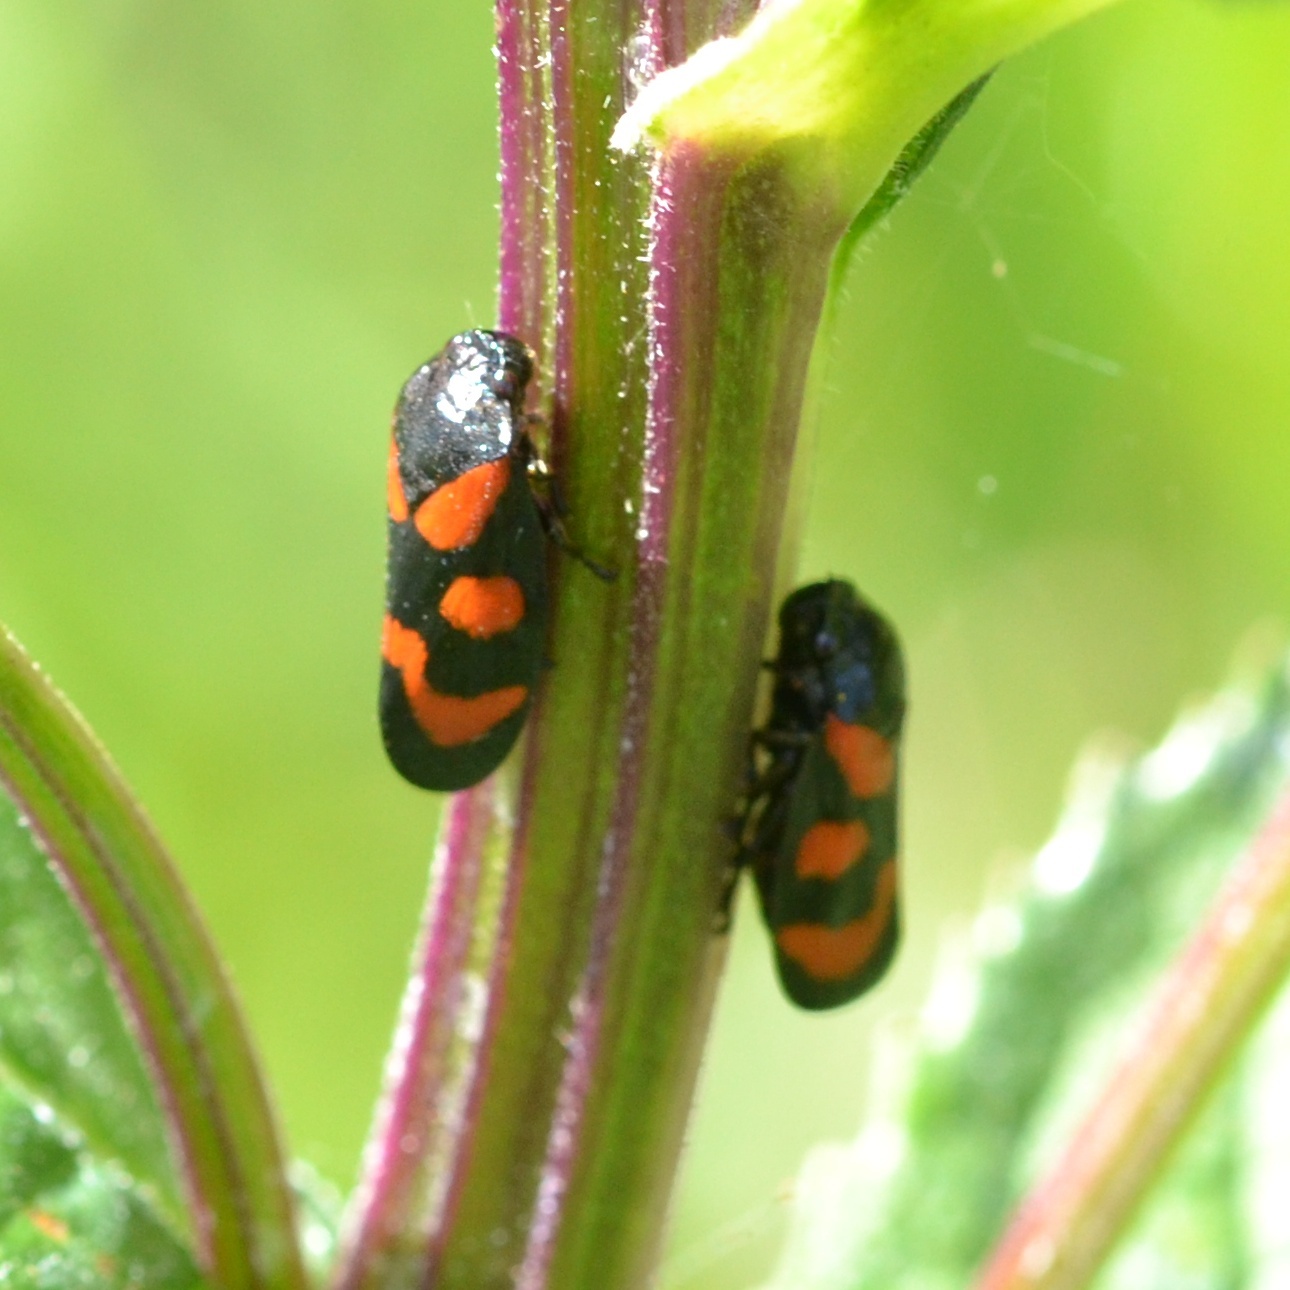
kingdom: Animalia
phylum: Arthropoda
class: Insecta
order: Hemiptera
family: Cercopidae
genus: Cercopis
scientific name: Cercopis vulnerata
